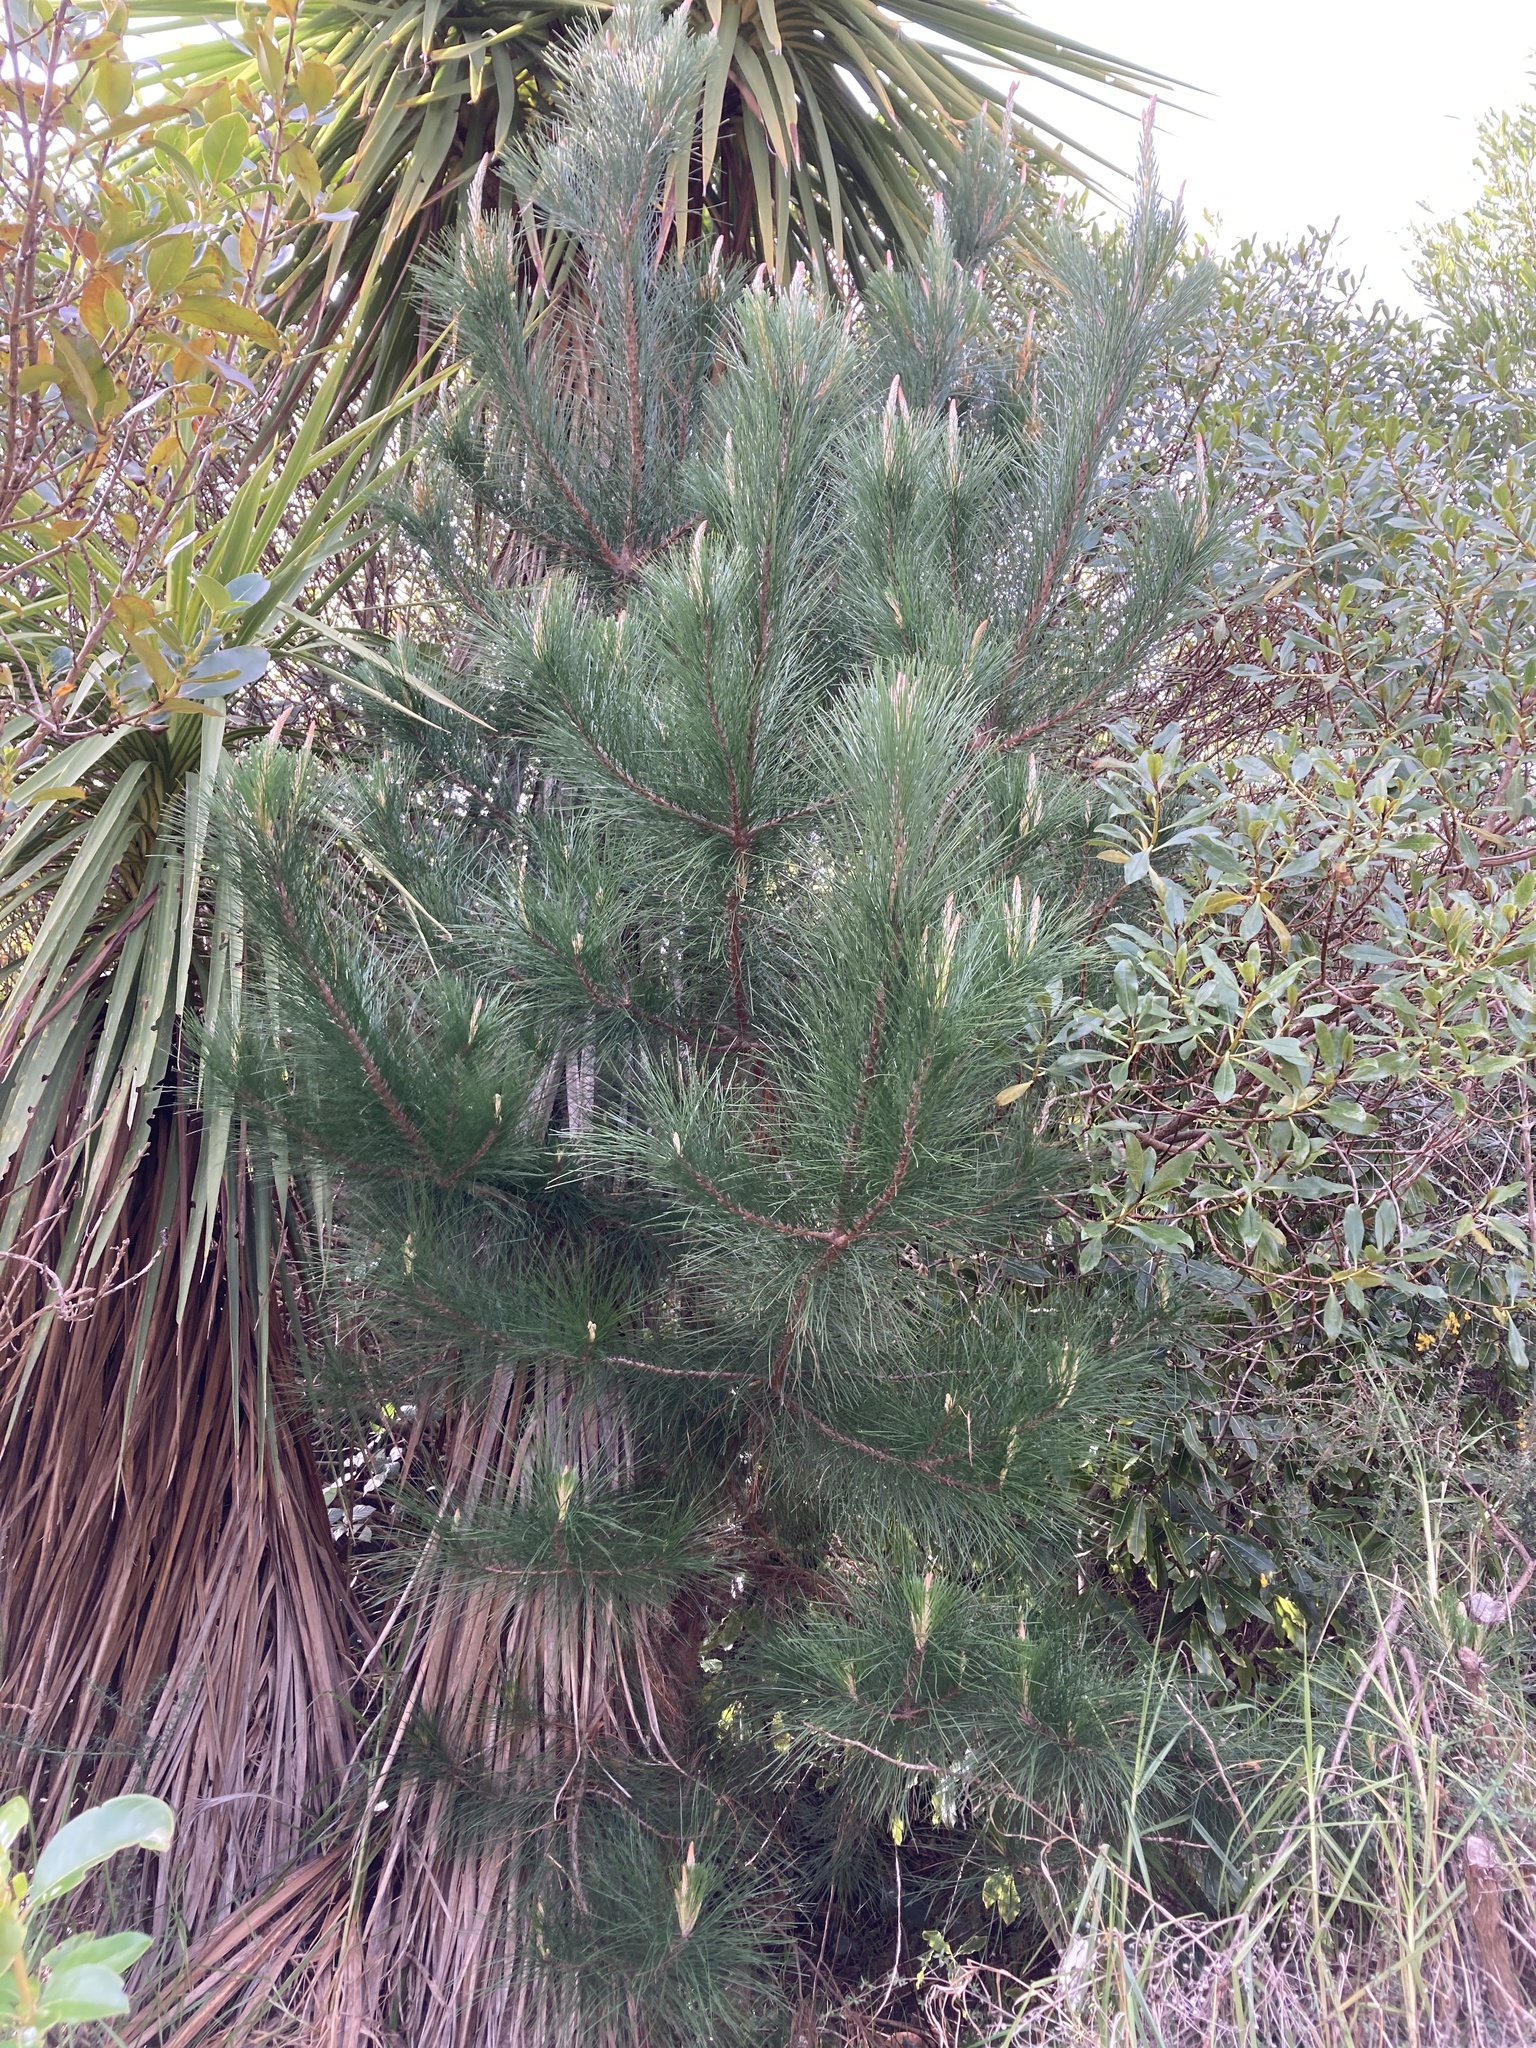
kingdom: Plantae
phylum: Tracheophyta
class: Pinopsida
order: Pinales
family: Pinaceae
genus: Pinus
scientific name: Pinus radiata
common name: Monterey pine
